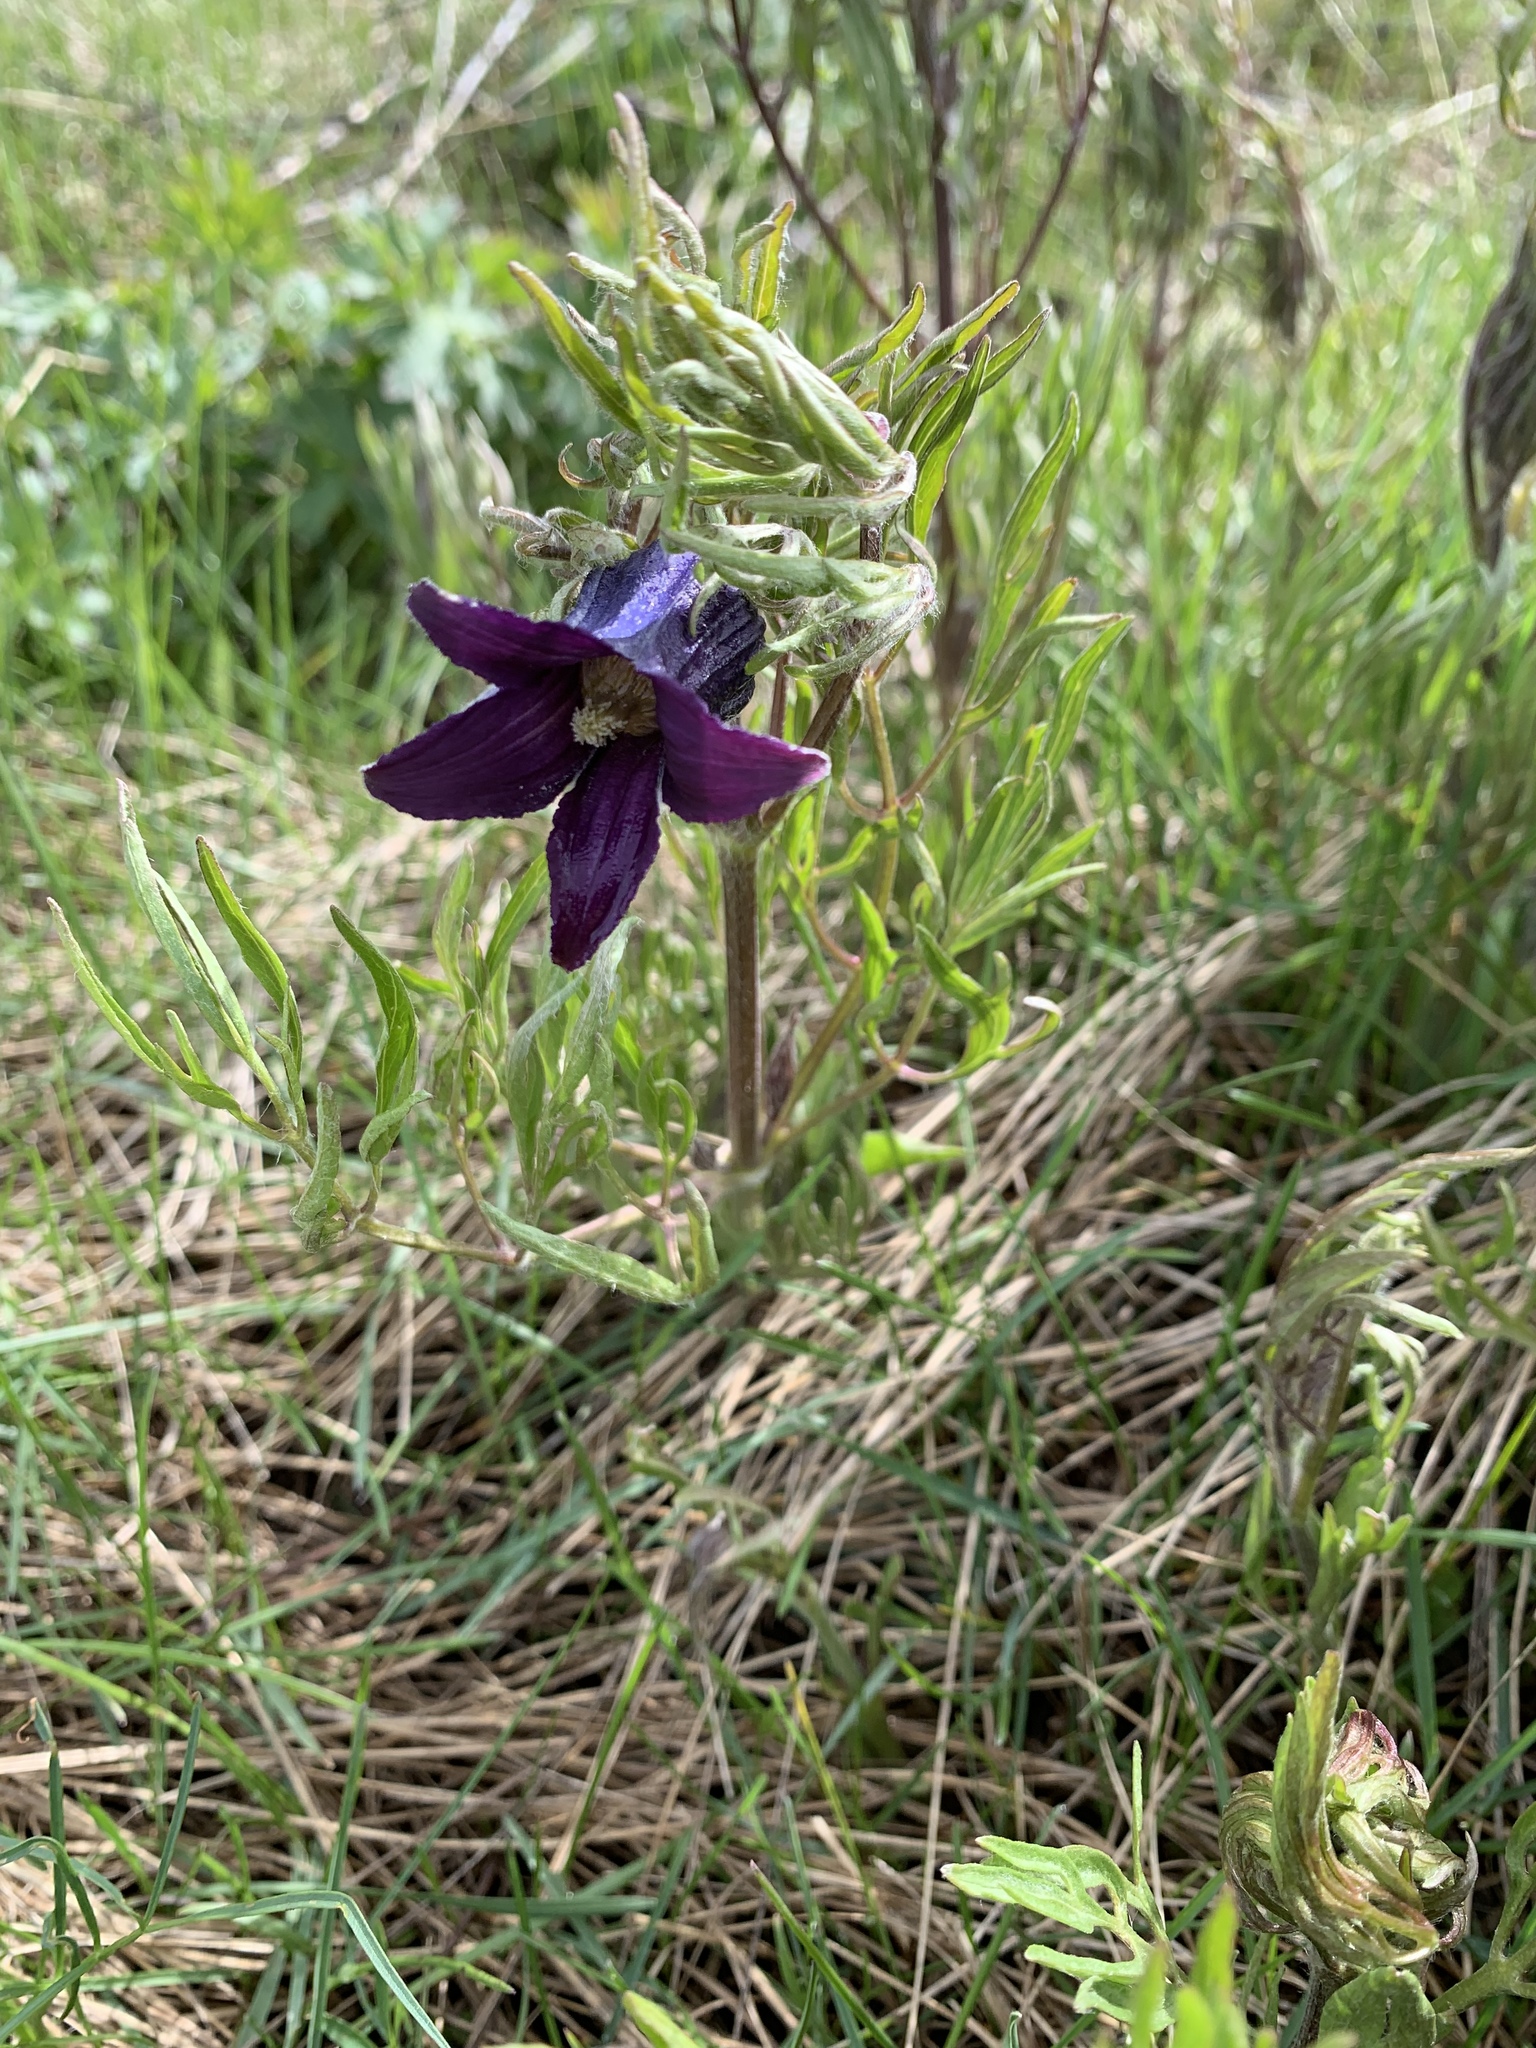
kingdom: Plantae
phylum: Tracheophyta
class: Magnoliopsida
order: Ranunculales
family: Ranunculaceae
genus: Clematis
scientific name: Clematis hirsutissima
